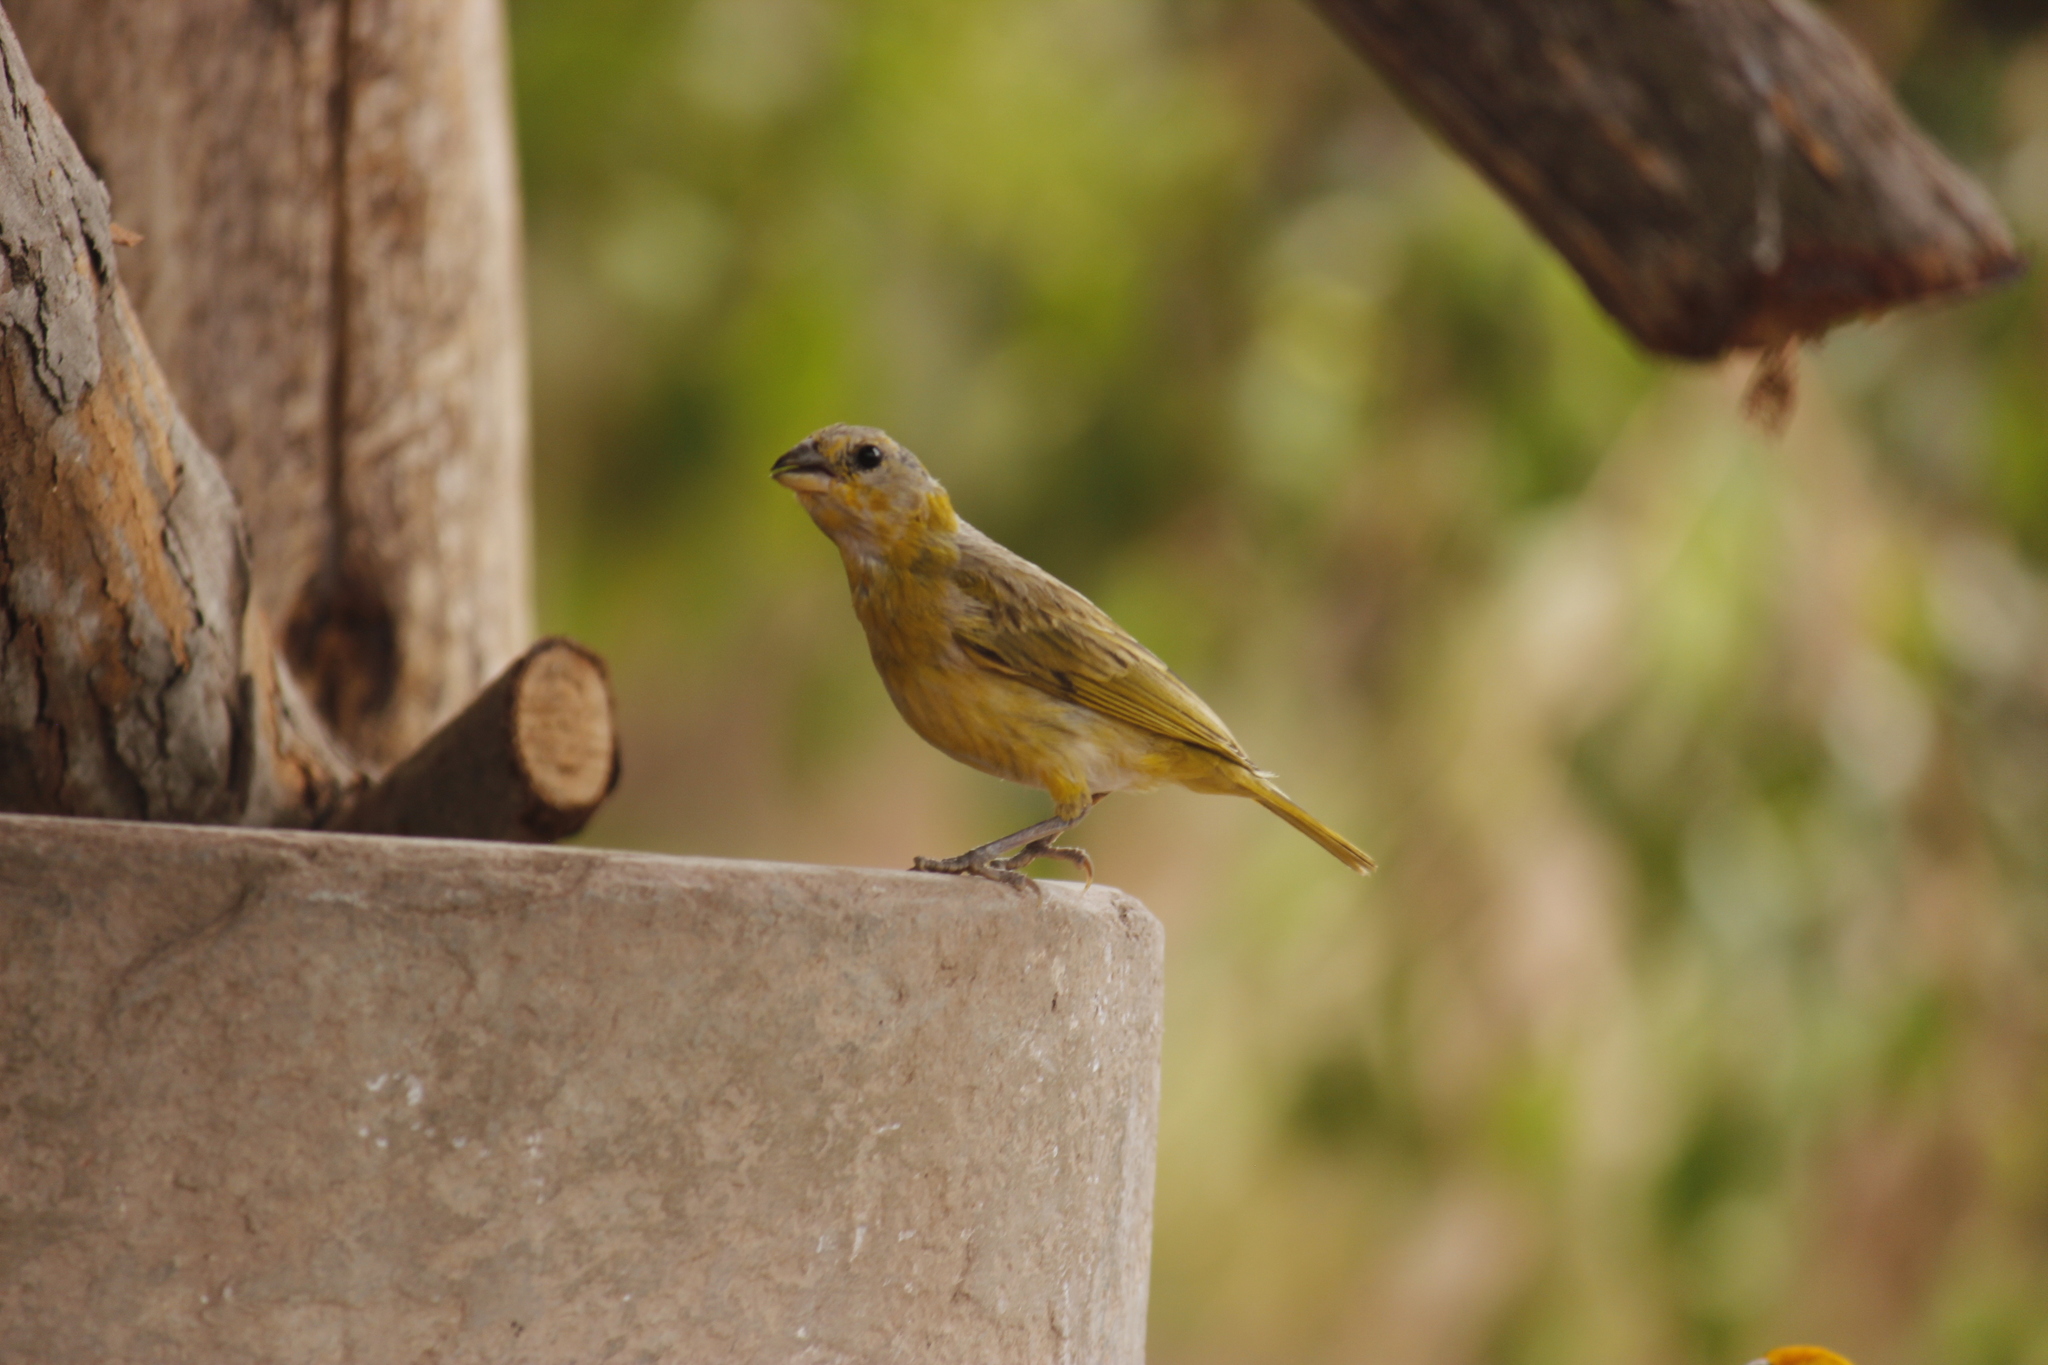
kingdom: Animalia
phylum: Chordata
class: Aves
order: Passeriformes
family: Thraupidae
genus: Sicalis
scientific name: Sicalis flaveola
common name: Saffron finch
